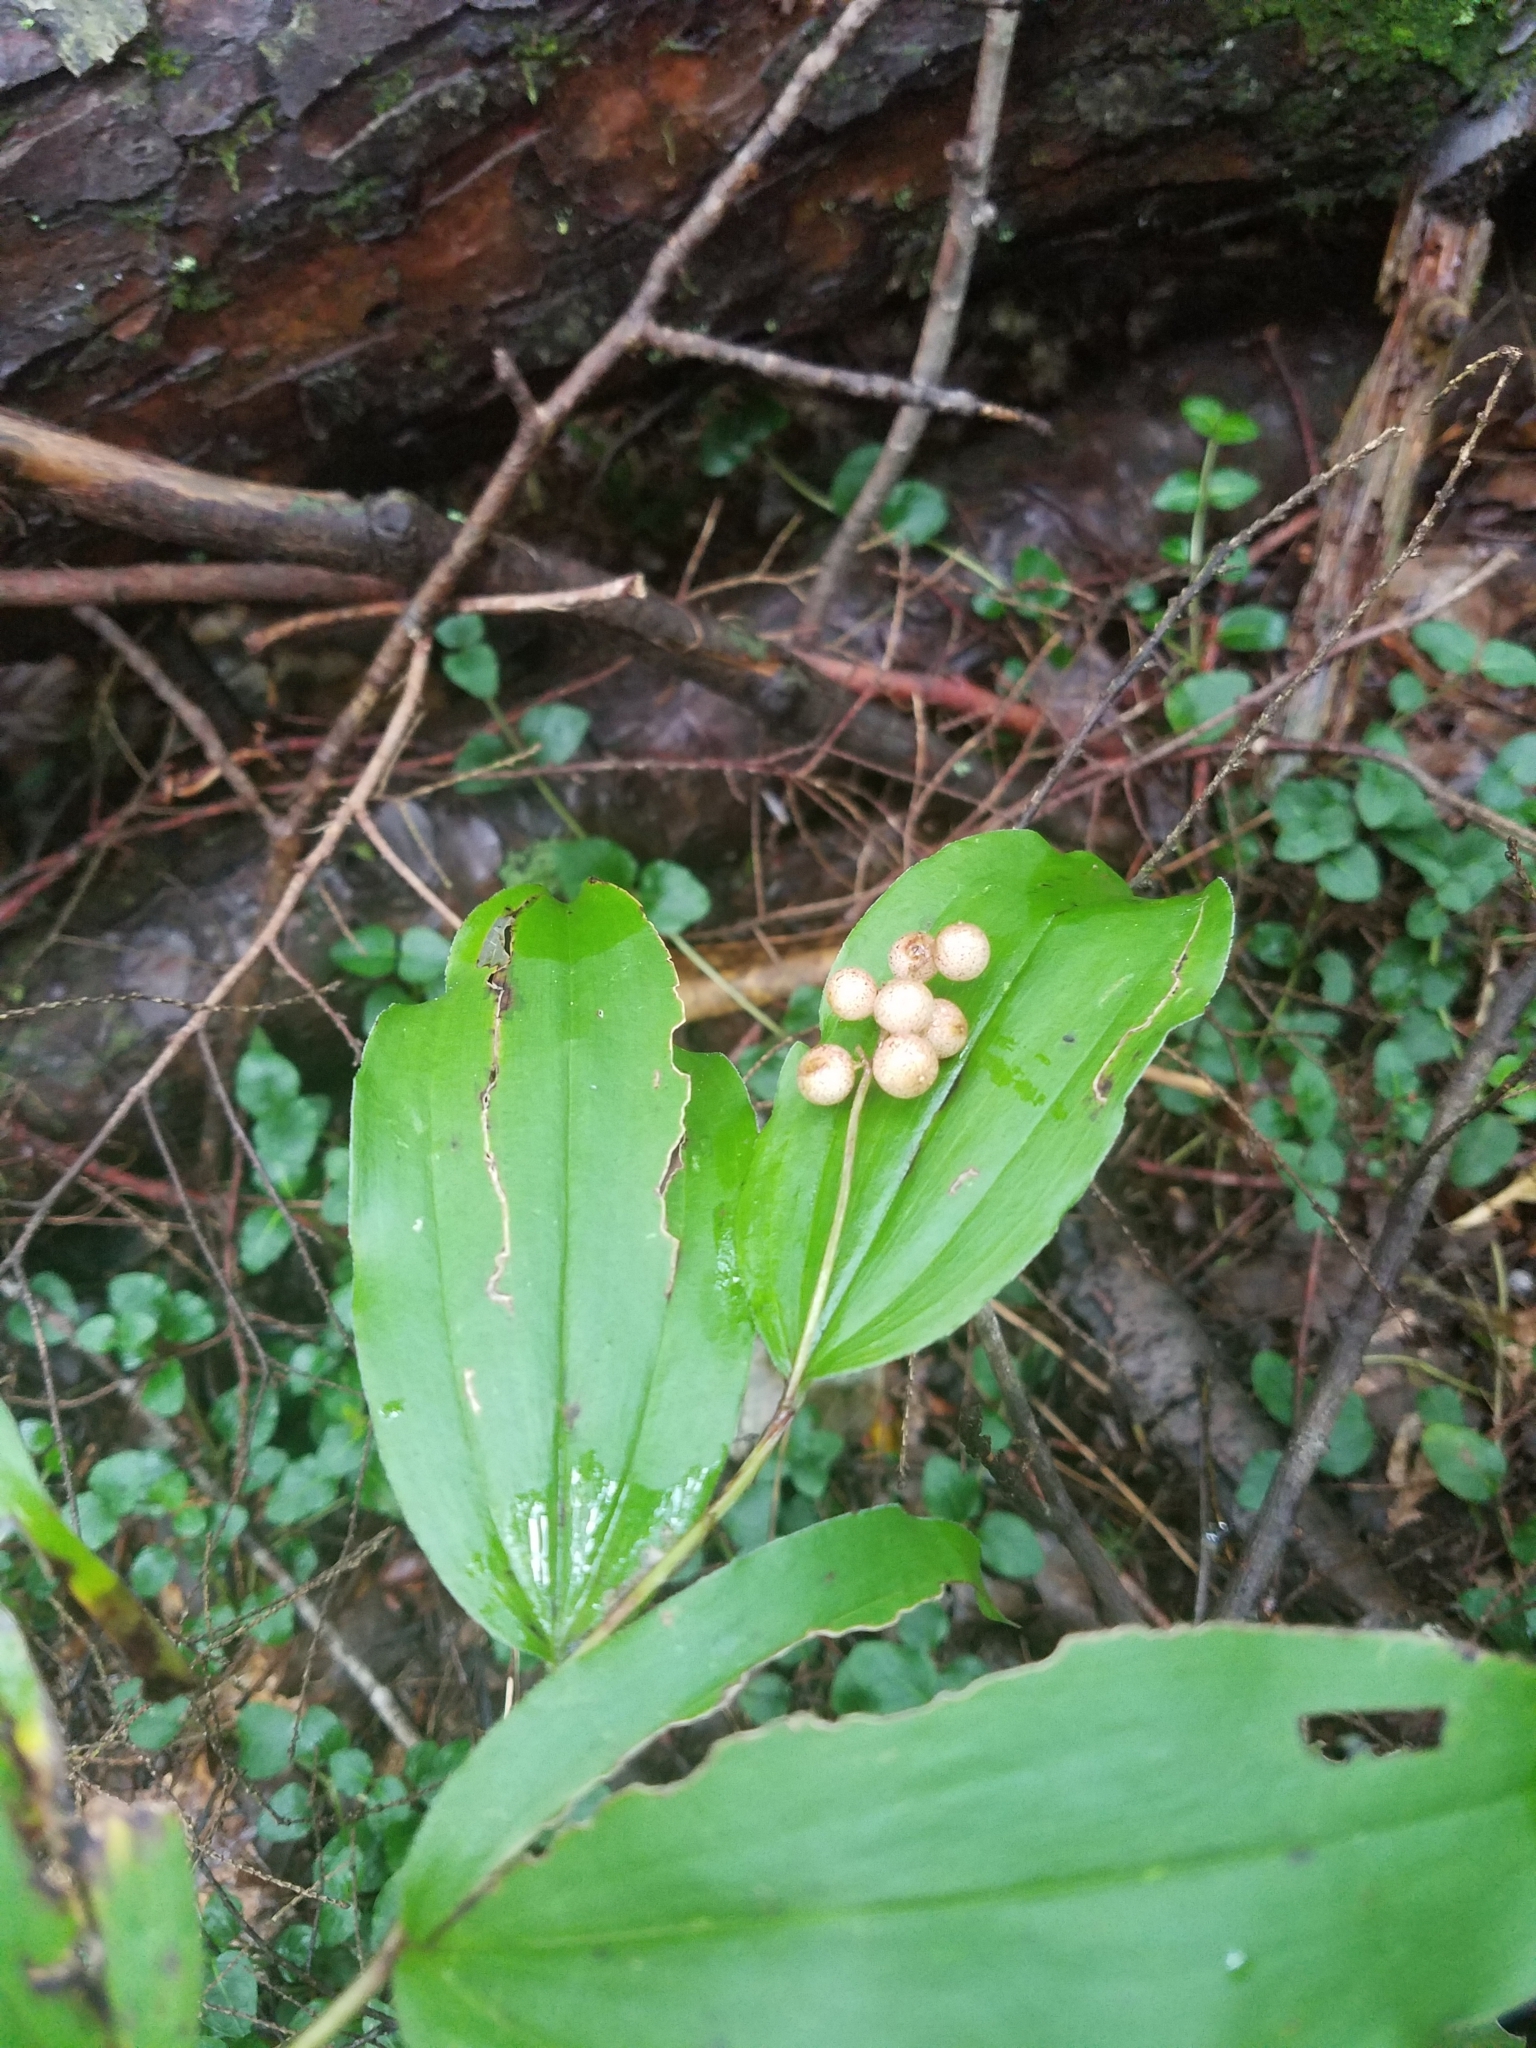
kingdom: Plantae
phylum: Tracheophyta
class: Liliopsida
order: Asparagales
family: Asparagaceae
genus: Maianthemum
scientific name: Maianthemum racemosum
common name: False spikenard
